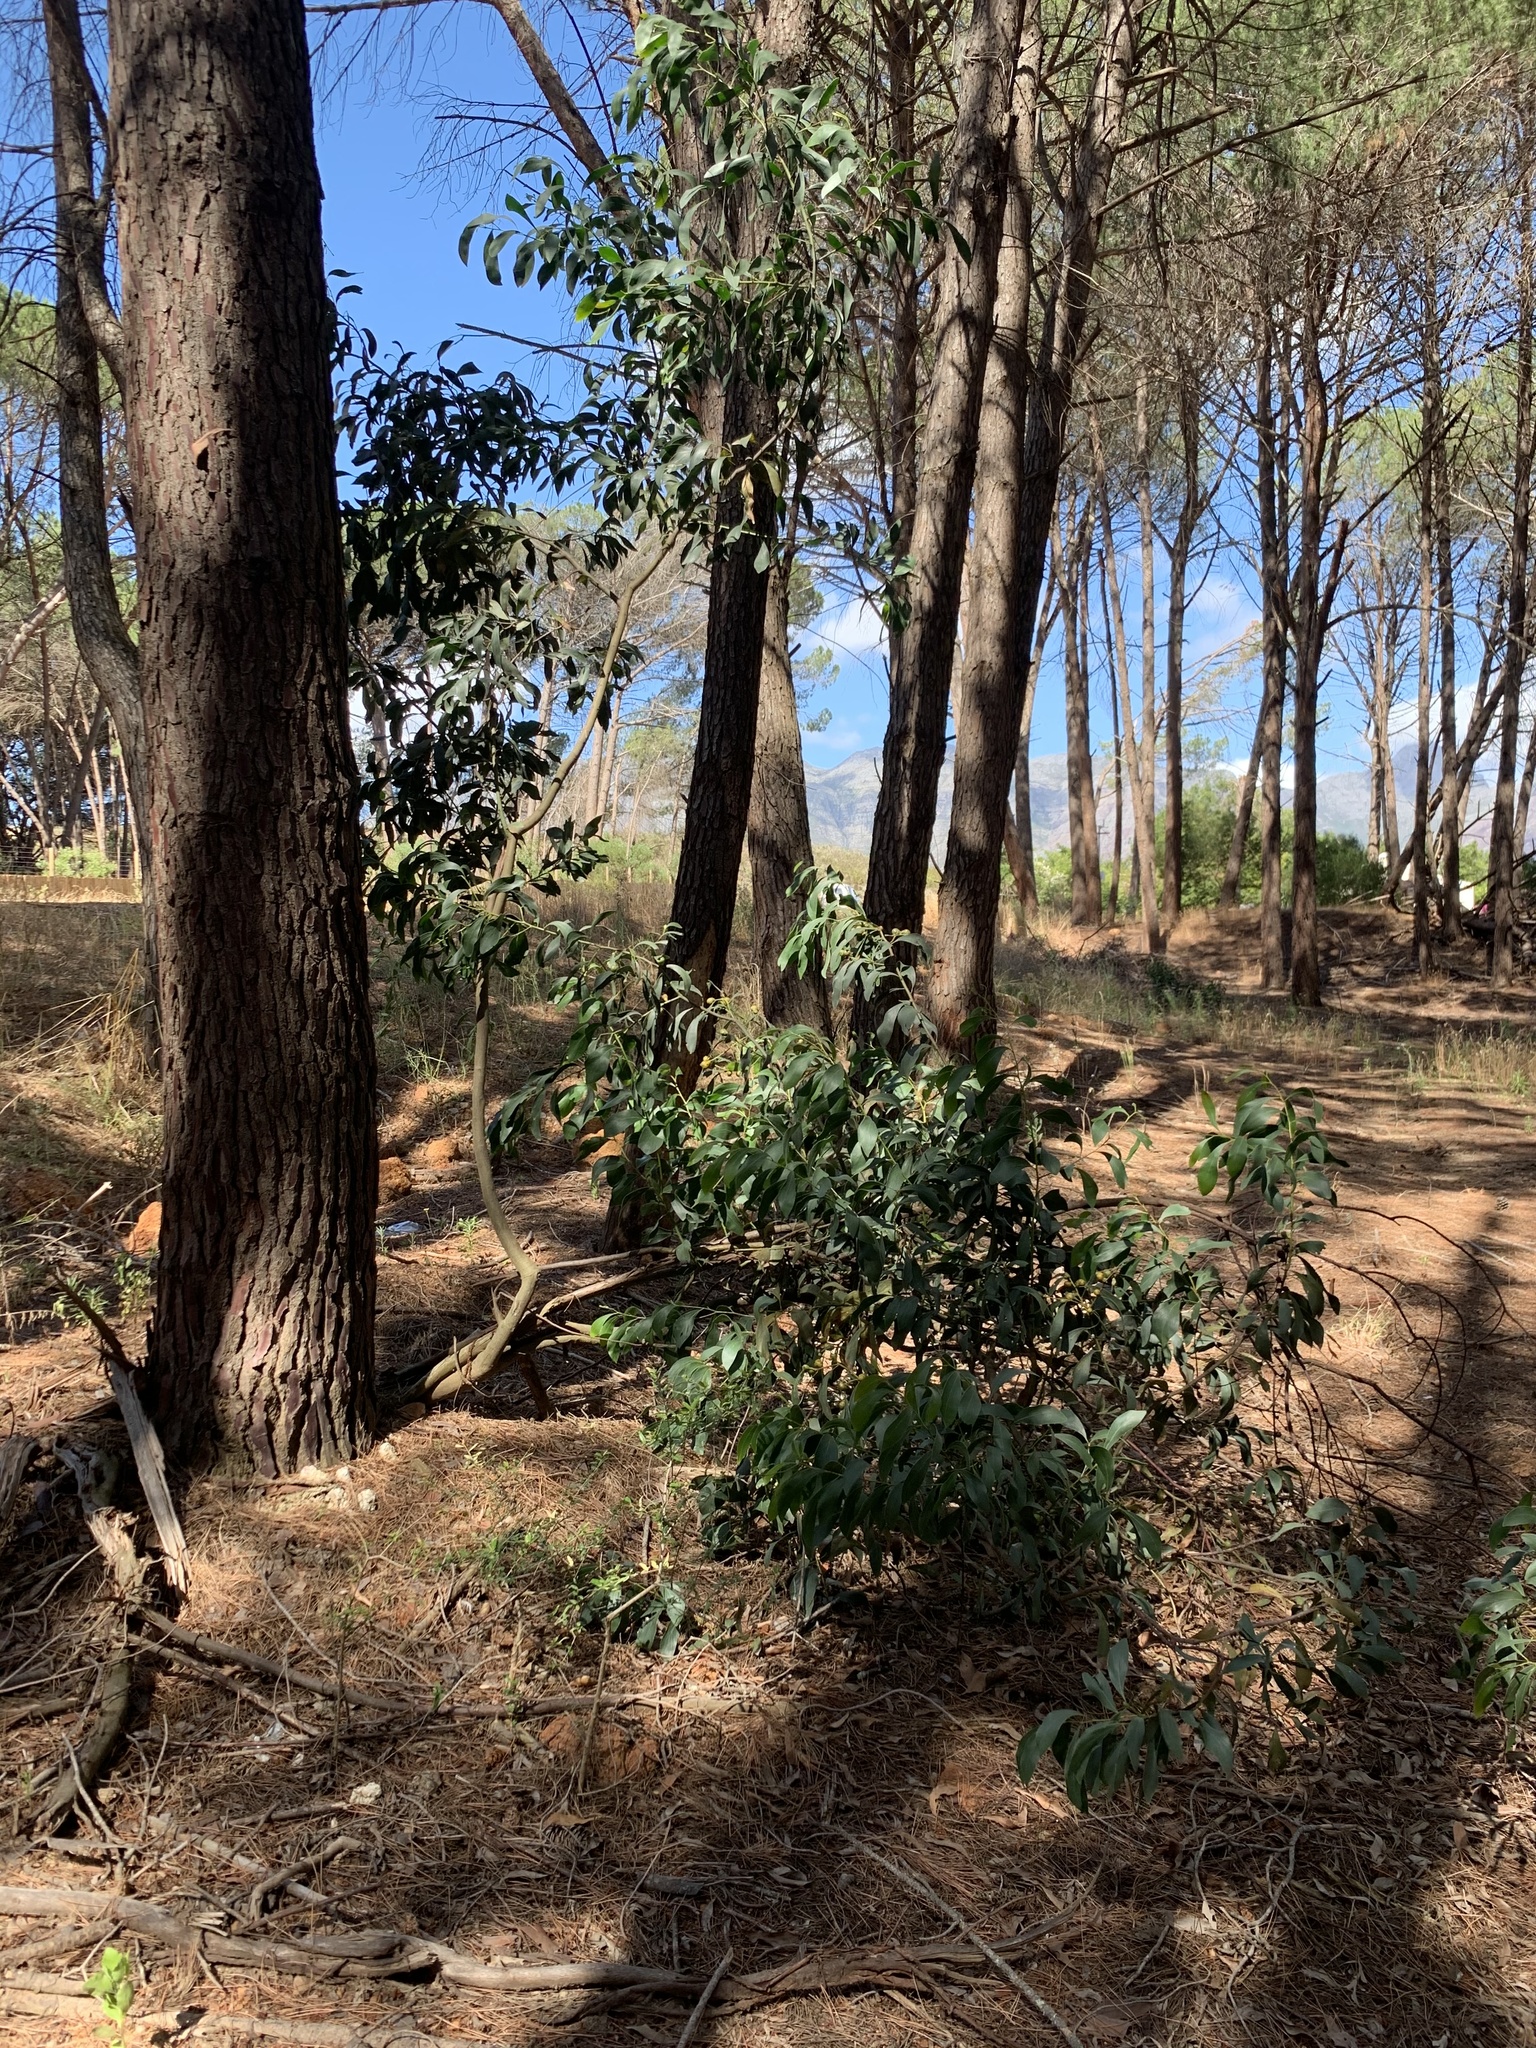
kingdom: Plantae
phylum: Tracheophyta
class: Magnoliopsida
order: Fabales
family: Fabaceae
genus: Acacia
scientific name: Acacia pycnantha
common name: Golden wattle
